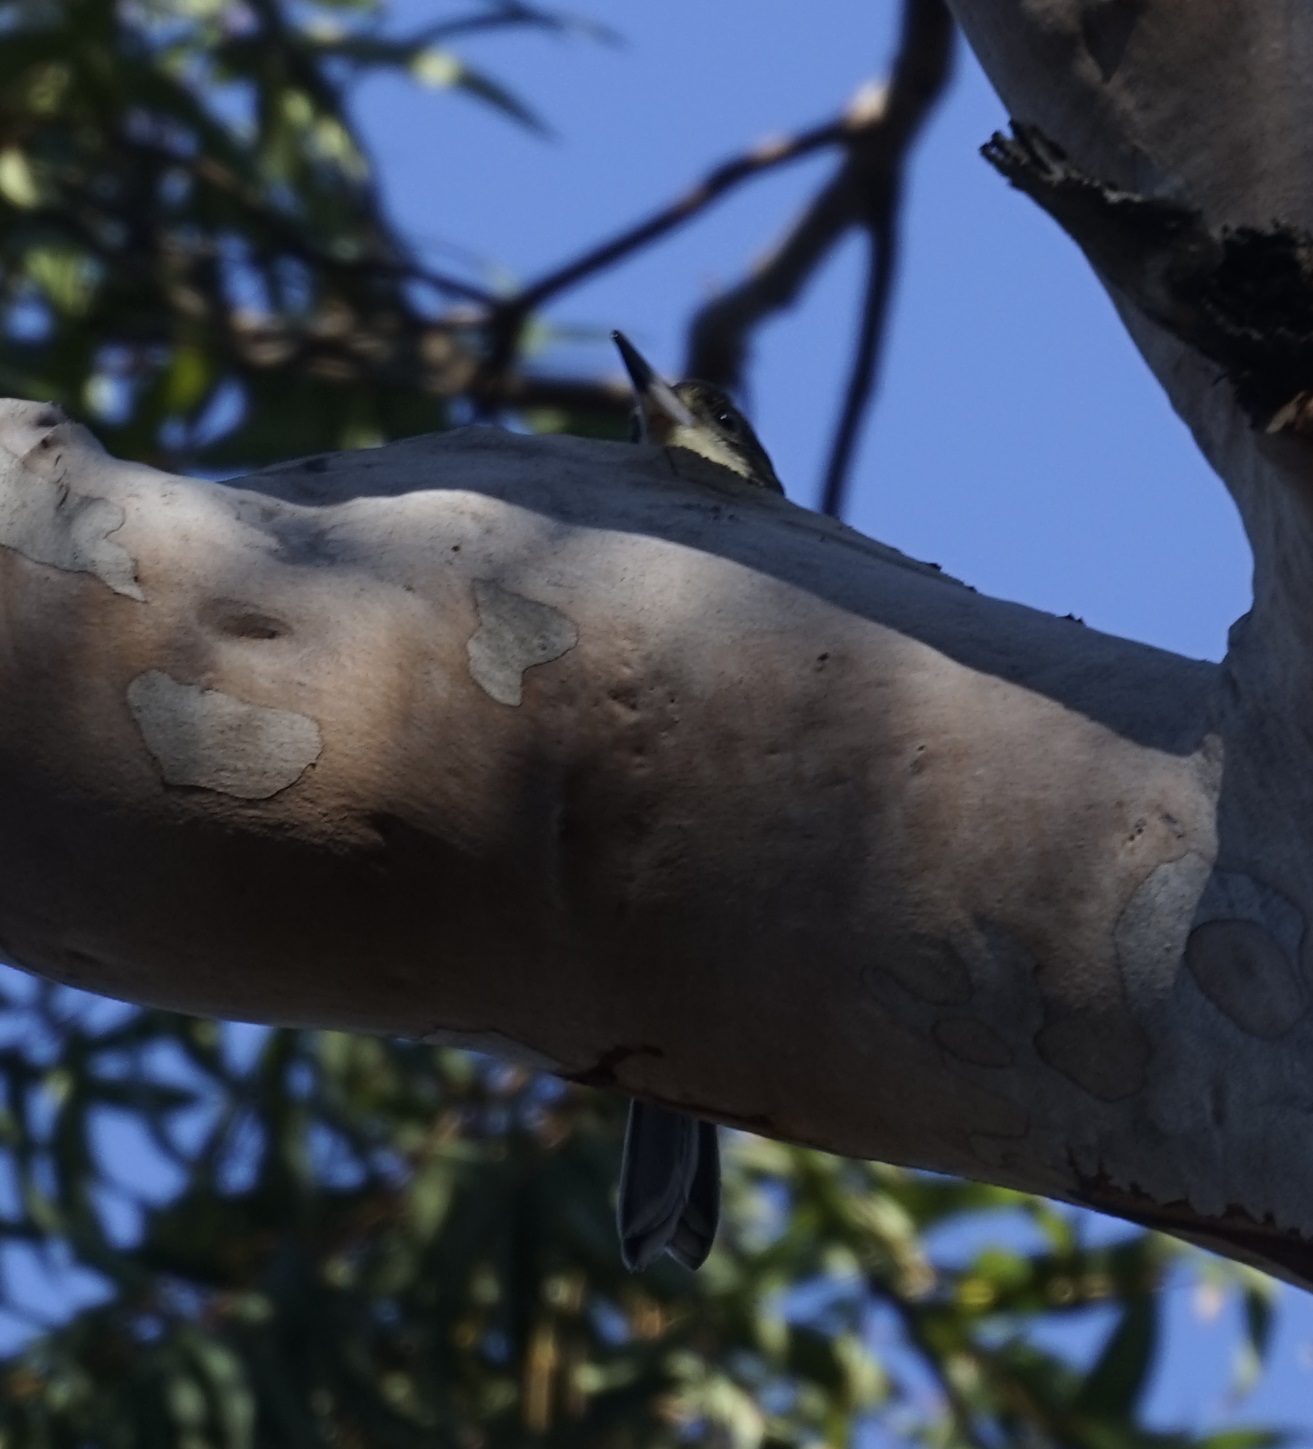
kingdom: Animalia
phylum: Chordata
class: Aves
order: Passeriformes
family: Cracticidae
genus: Cracticus
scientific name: Cracticus torquatus
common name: Grey butcherbird
